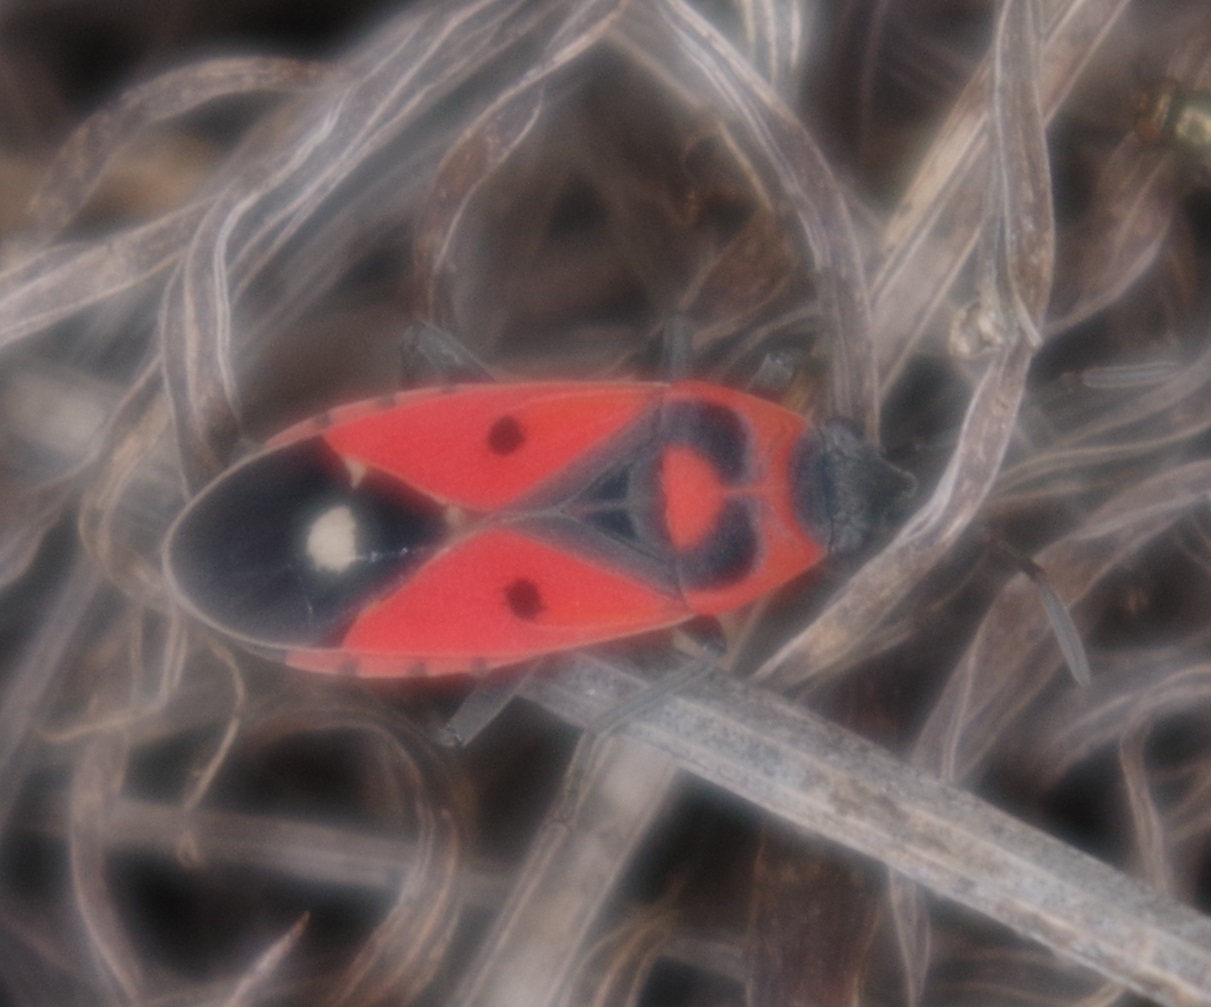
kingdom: Animalia
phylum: Arthropoda
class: Insecta
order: Hemiptera
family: Lygaeidae
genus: Melanocoryphus
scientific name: Melanocoryphus albomaculatus
